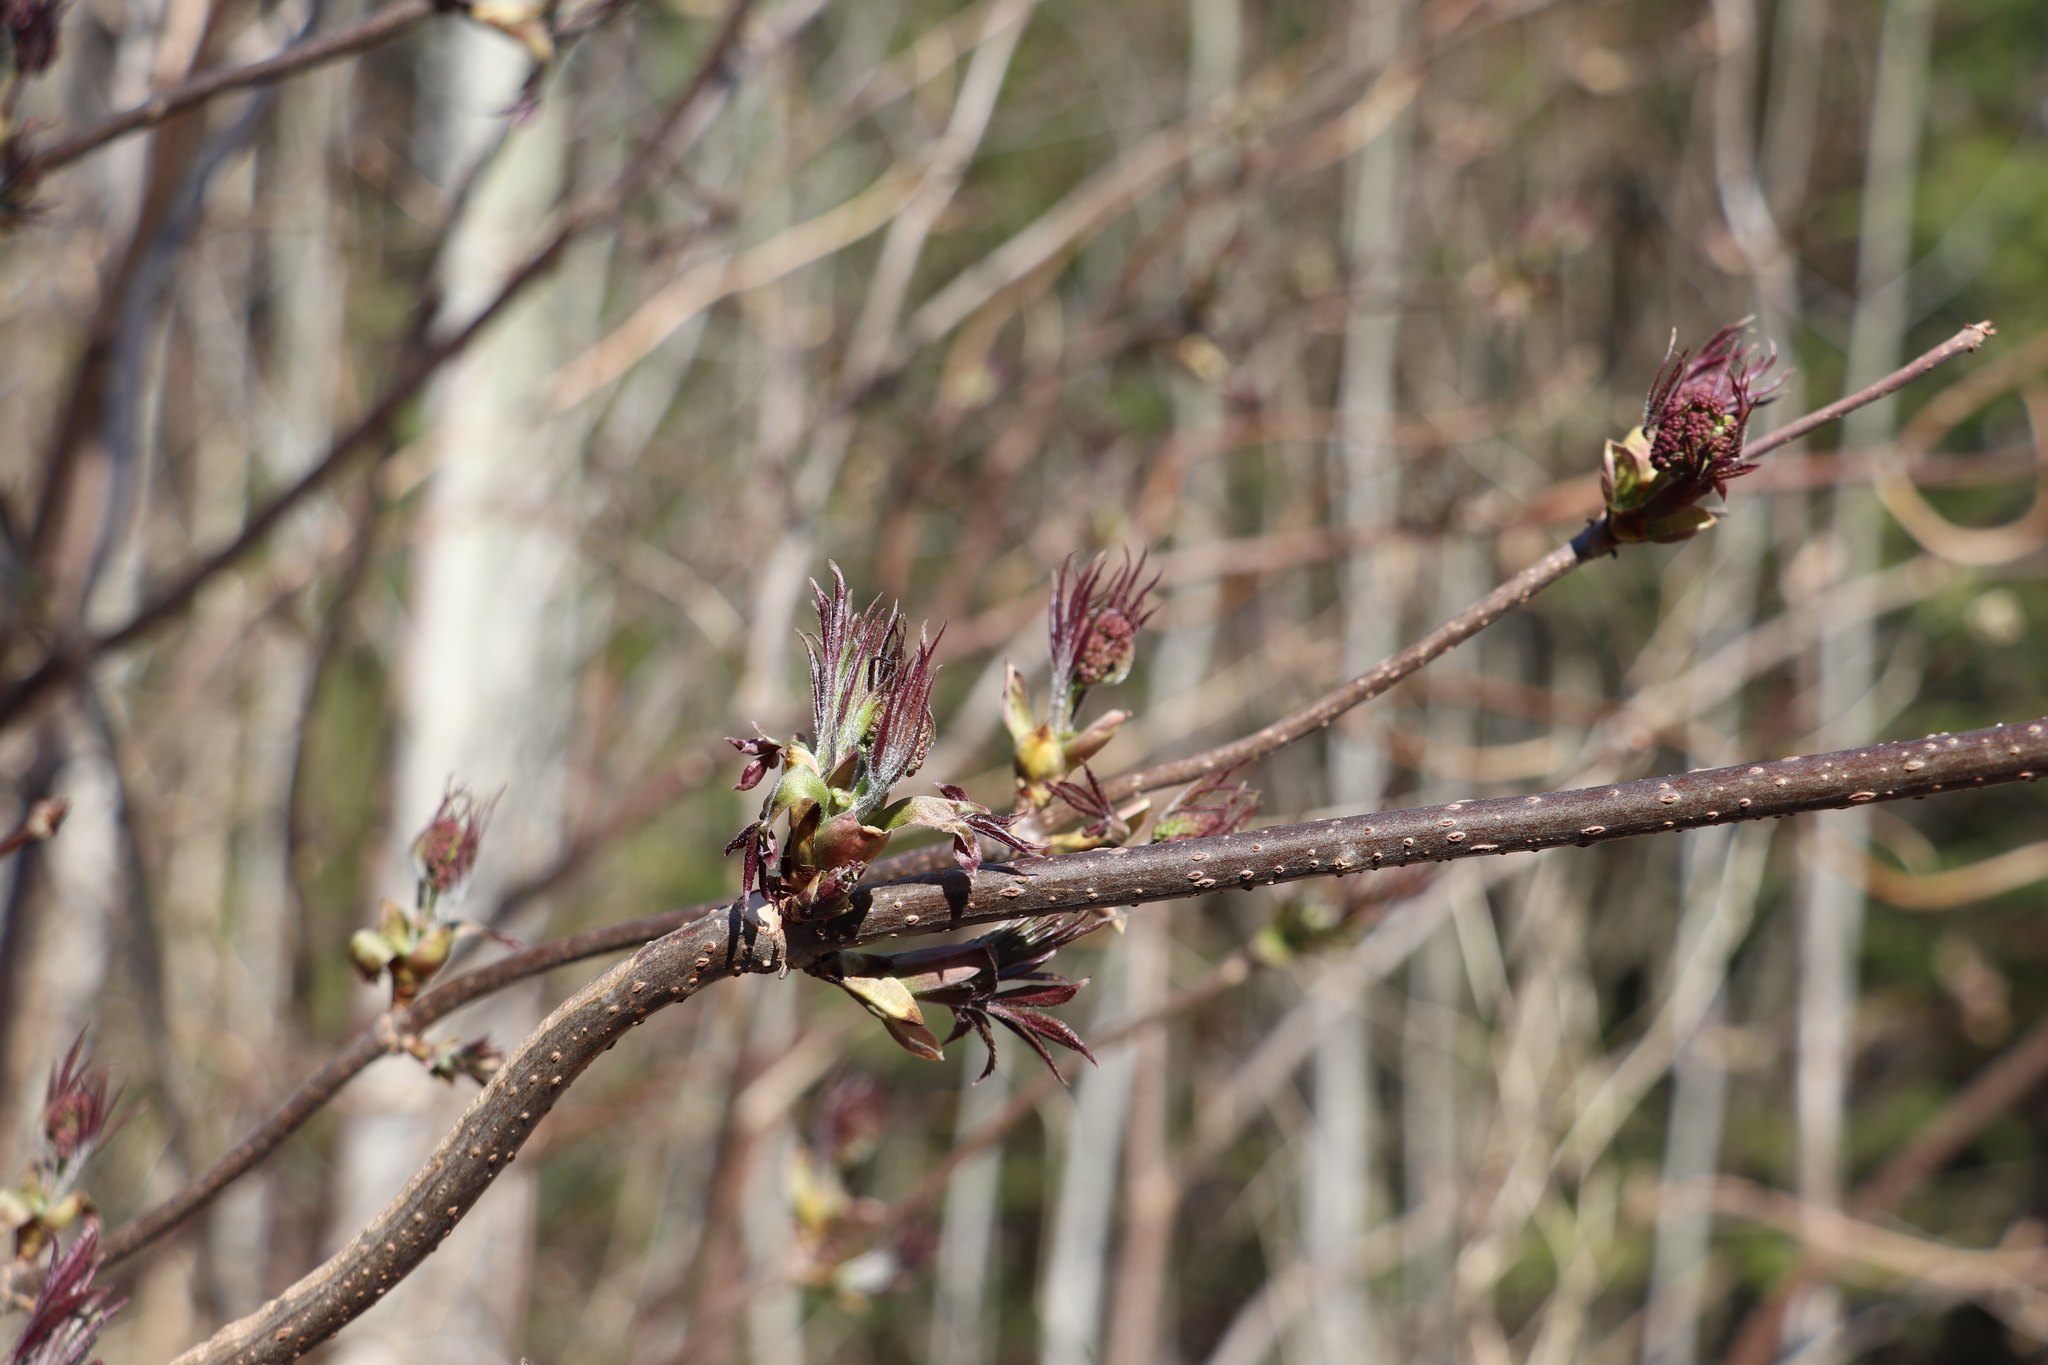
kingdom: Plantae
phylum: Tracheophyta
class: Magnoliopsida
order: Dipsacales
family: Viburnaceae
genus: Sambucus
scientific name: Sambucus sibirica
